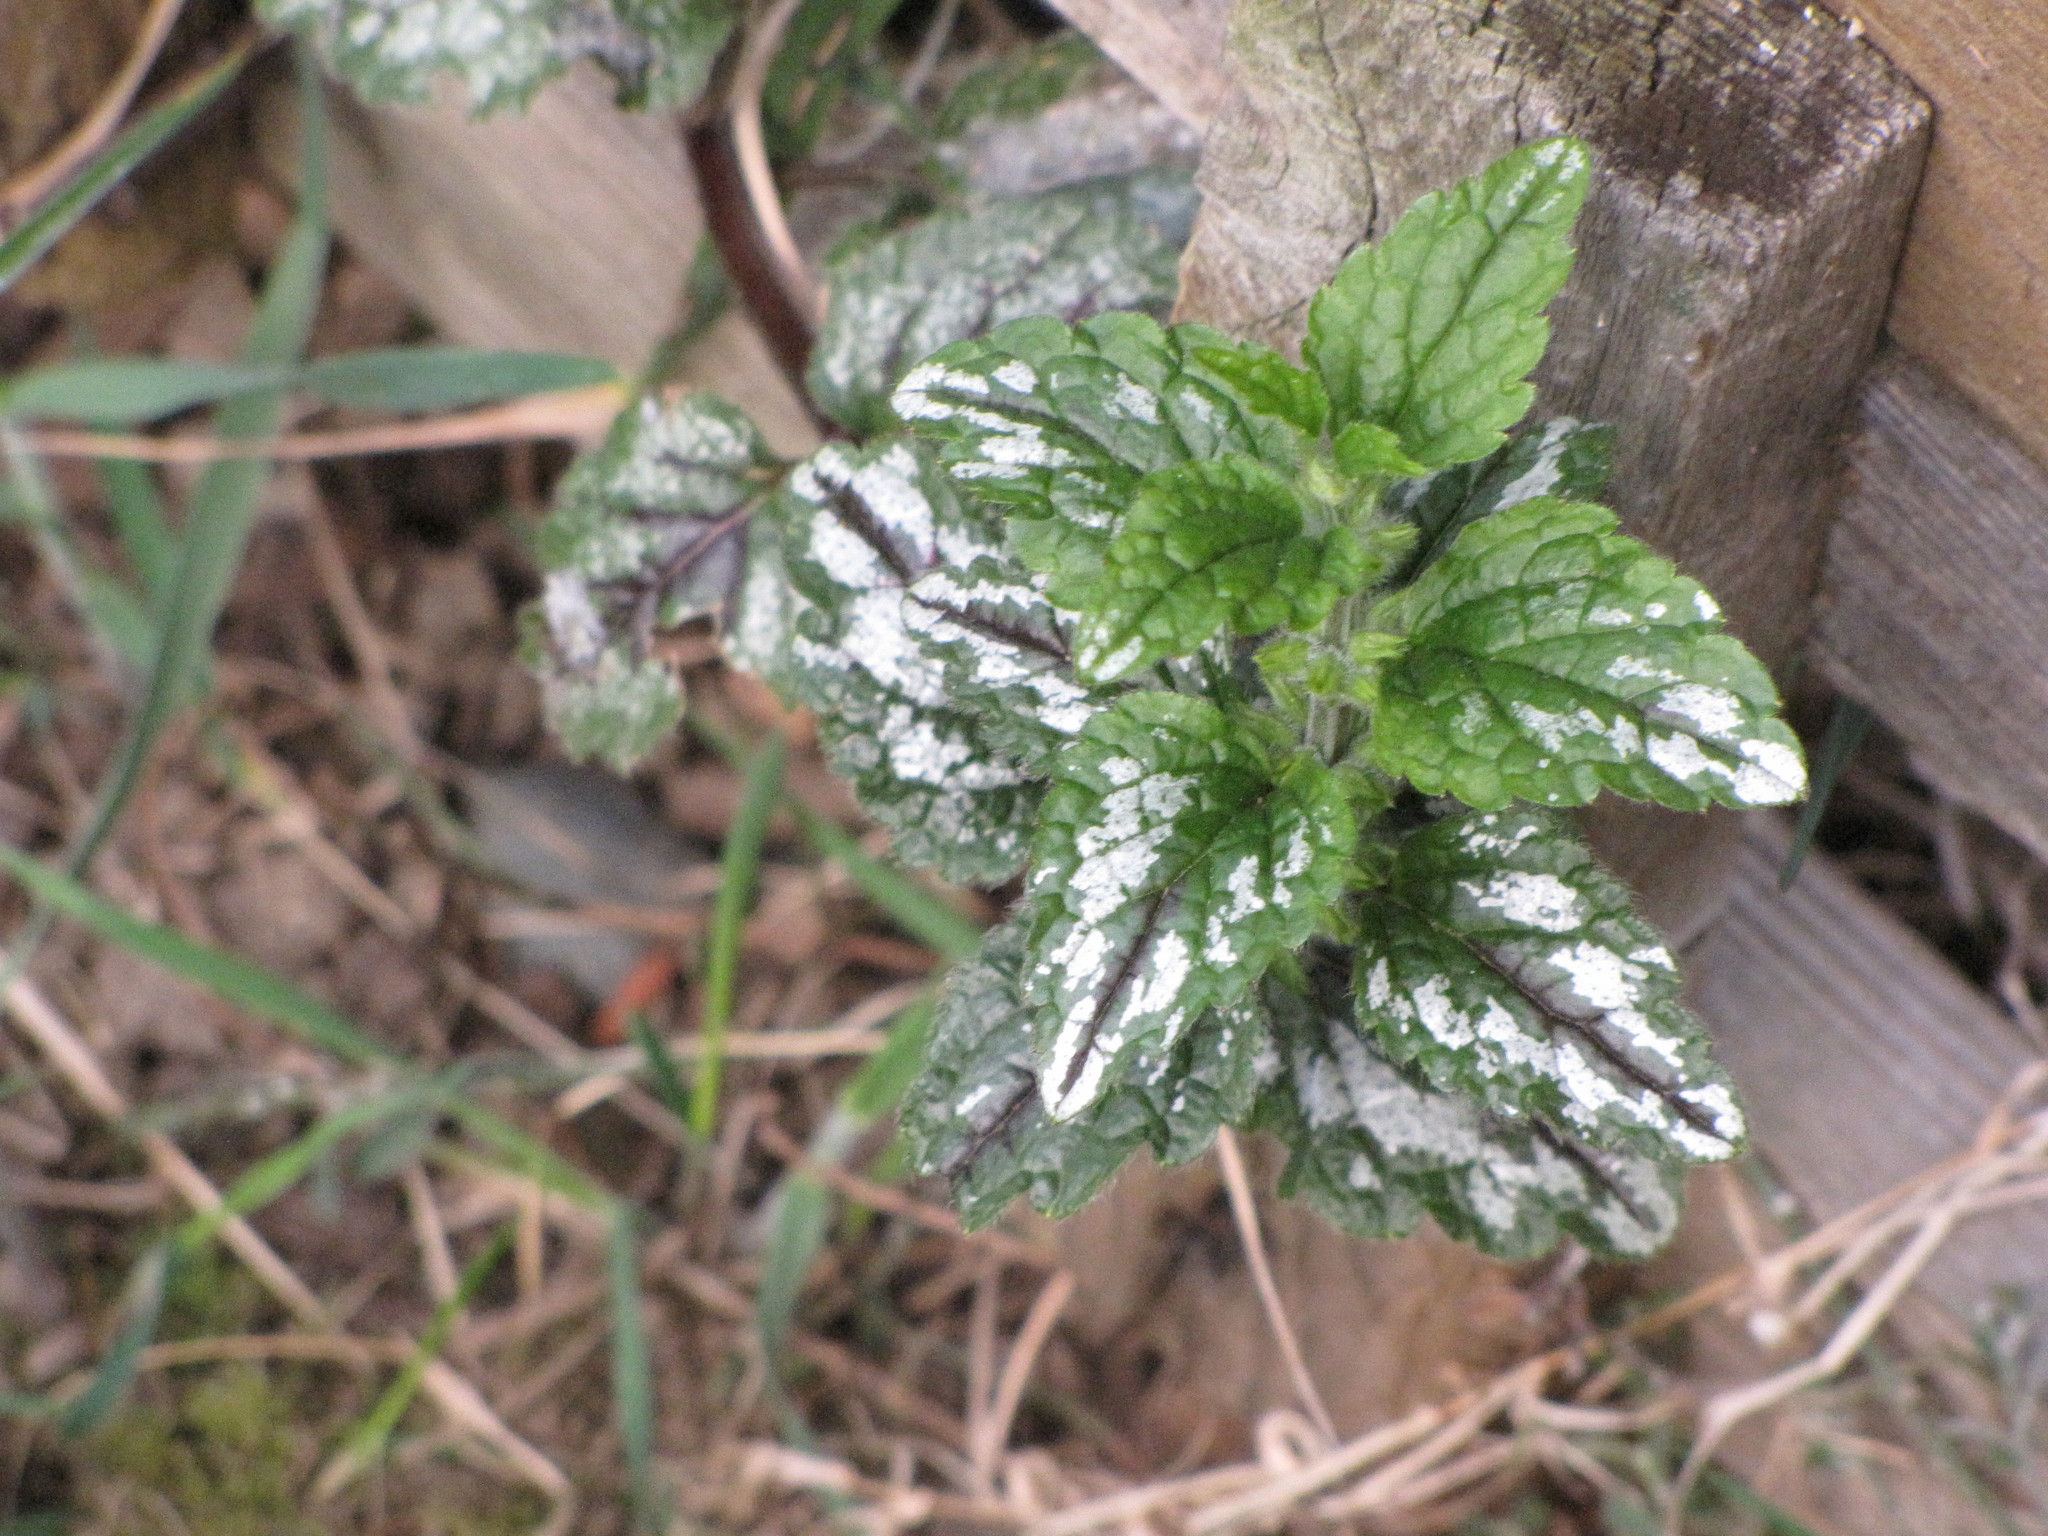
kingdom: Plantae
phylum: Tracheophyta
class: Magnoliopsida
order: Lamiales
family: Lamiaceae
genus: Lamium
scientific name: Lamium galeobdolon
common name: Yellow archangel
